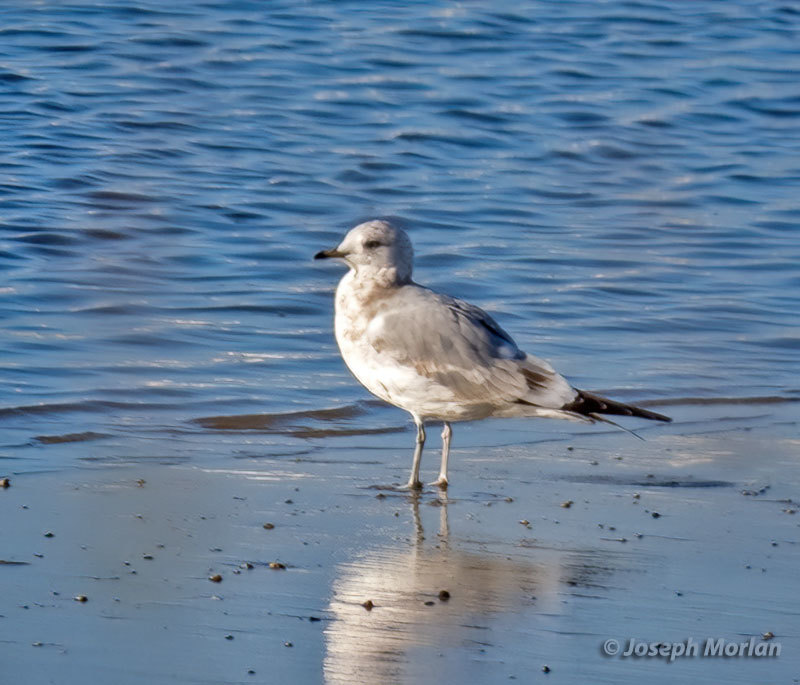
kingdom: Animalia
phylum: Chordata
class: Aves
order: Charadriiformes
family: Laridae
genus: Larus
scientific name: Larus brachyrhynchus
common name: Short-billed gull
